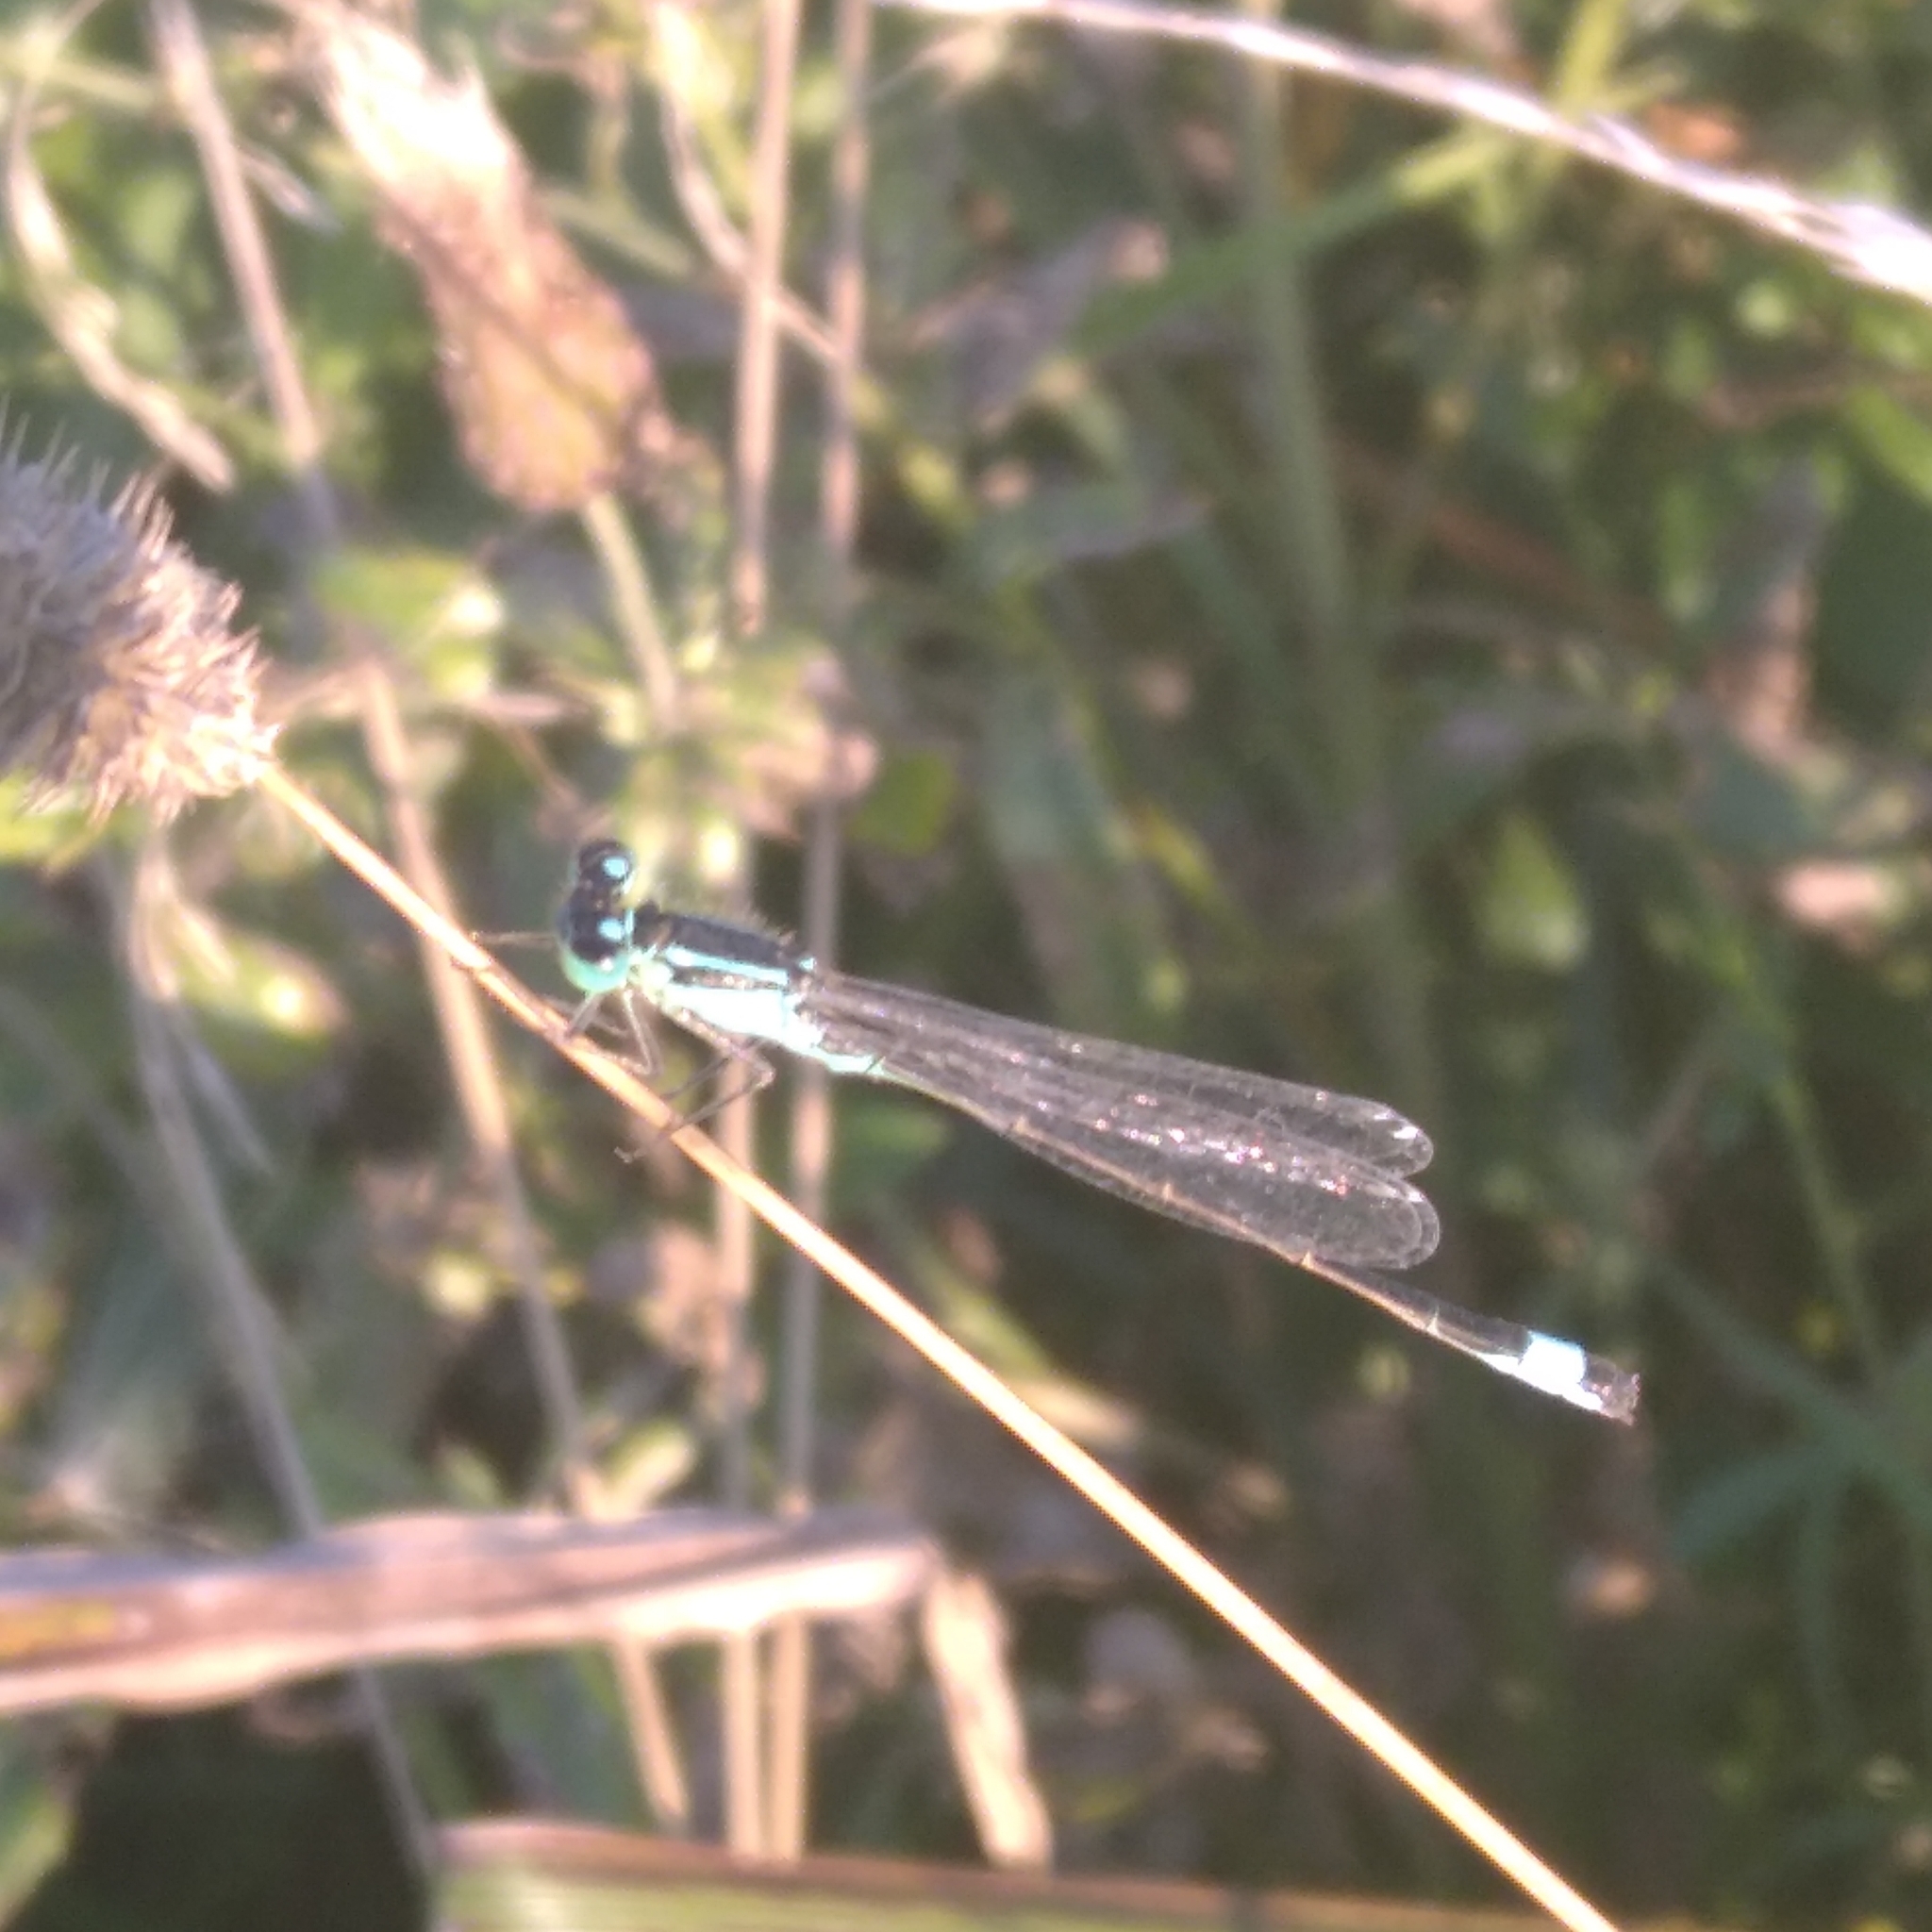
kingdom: Animalia
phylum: Arthropoda
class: Insecta
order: Odonata
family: Coenagrionidae
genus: Ischnura
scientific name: Ischnura elegans
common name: Blue-tailed damselfly
